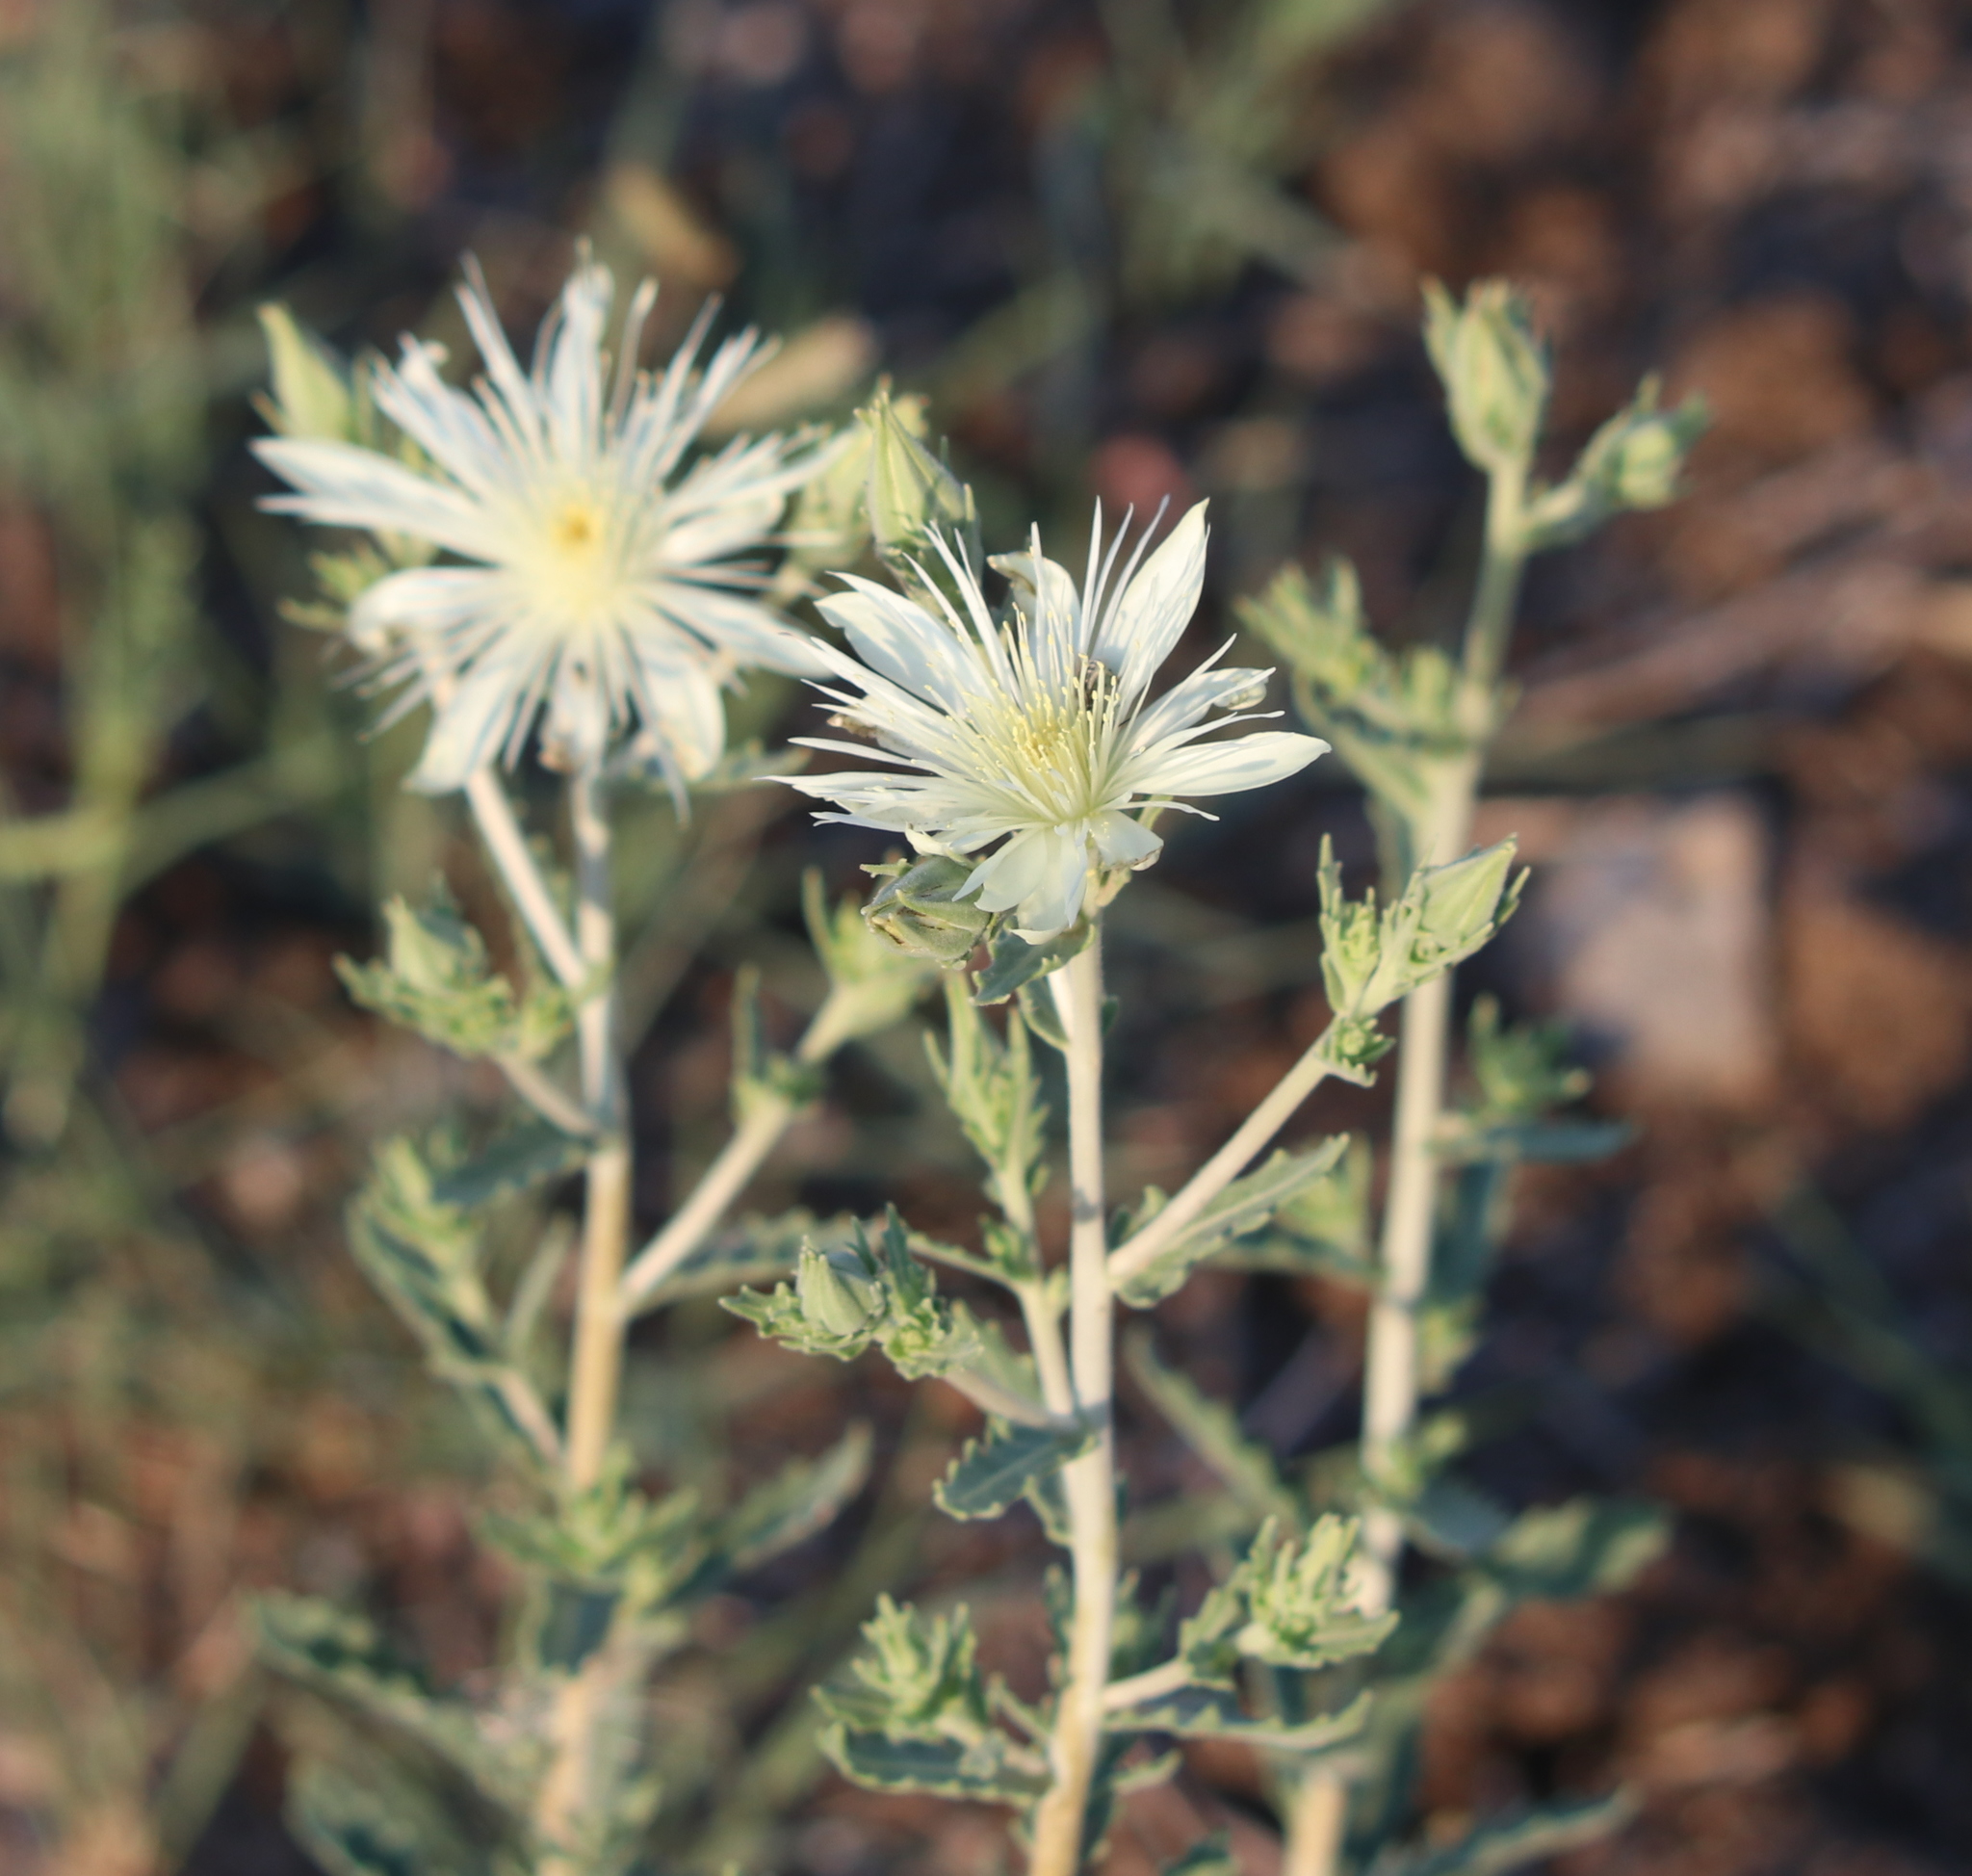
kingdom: Plantae
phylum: Tracheophyta
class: Magnoliopsida
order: Cornales
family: Loasaceae
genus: Mentzelia
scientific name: Mentzelia nuda
